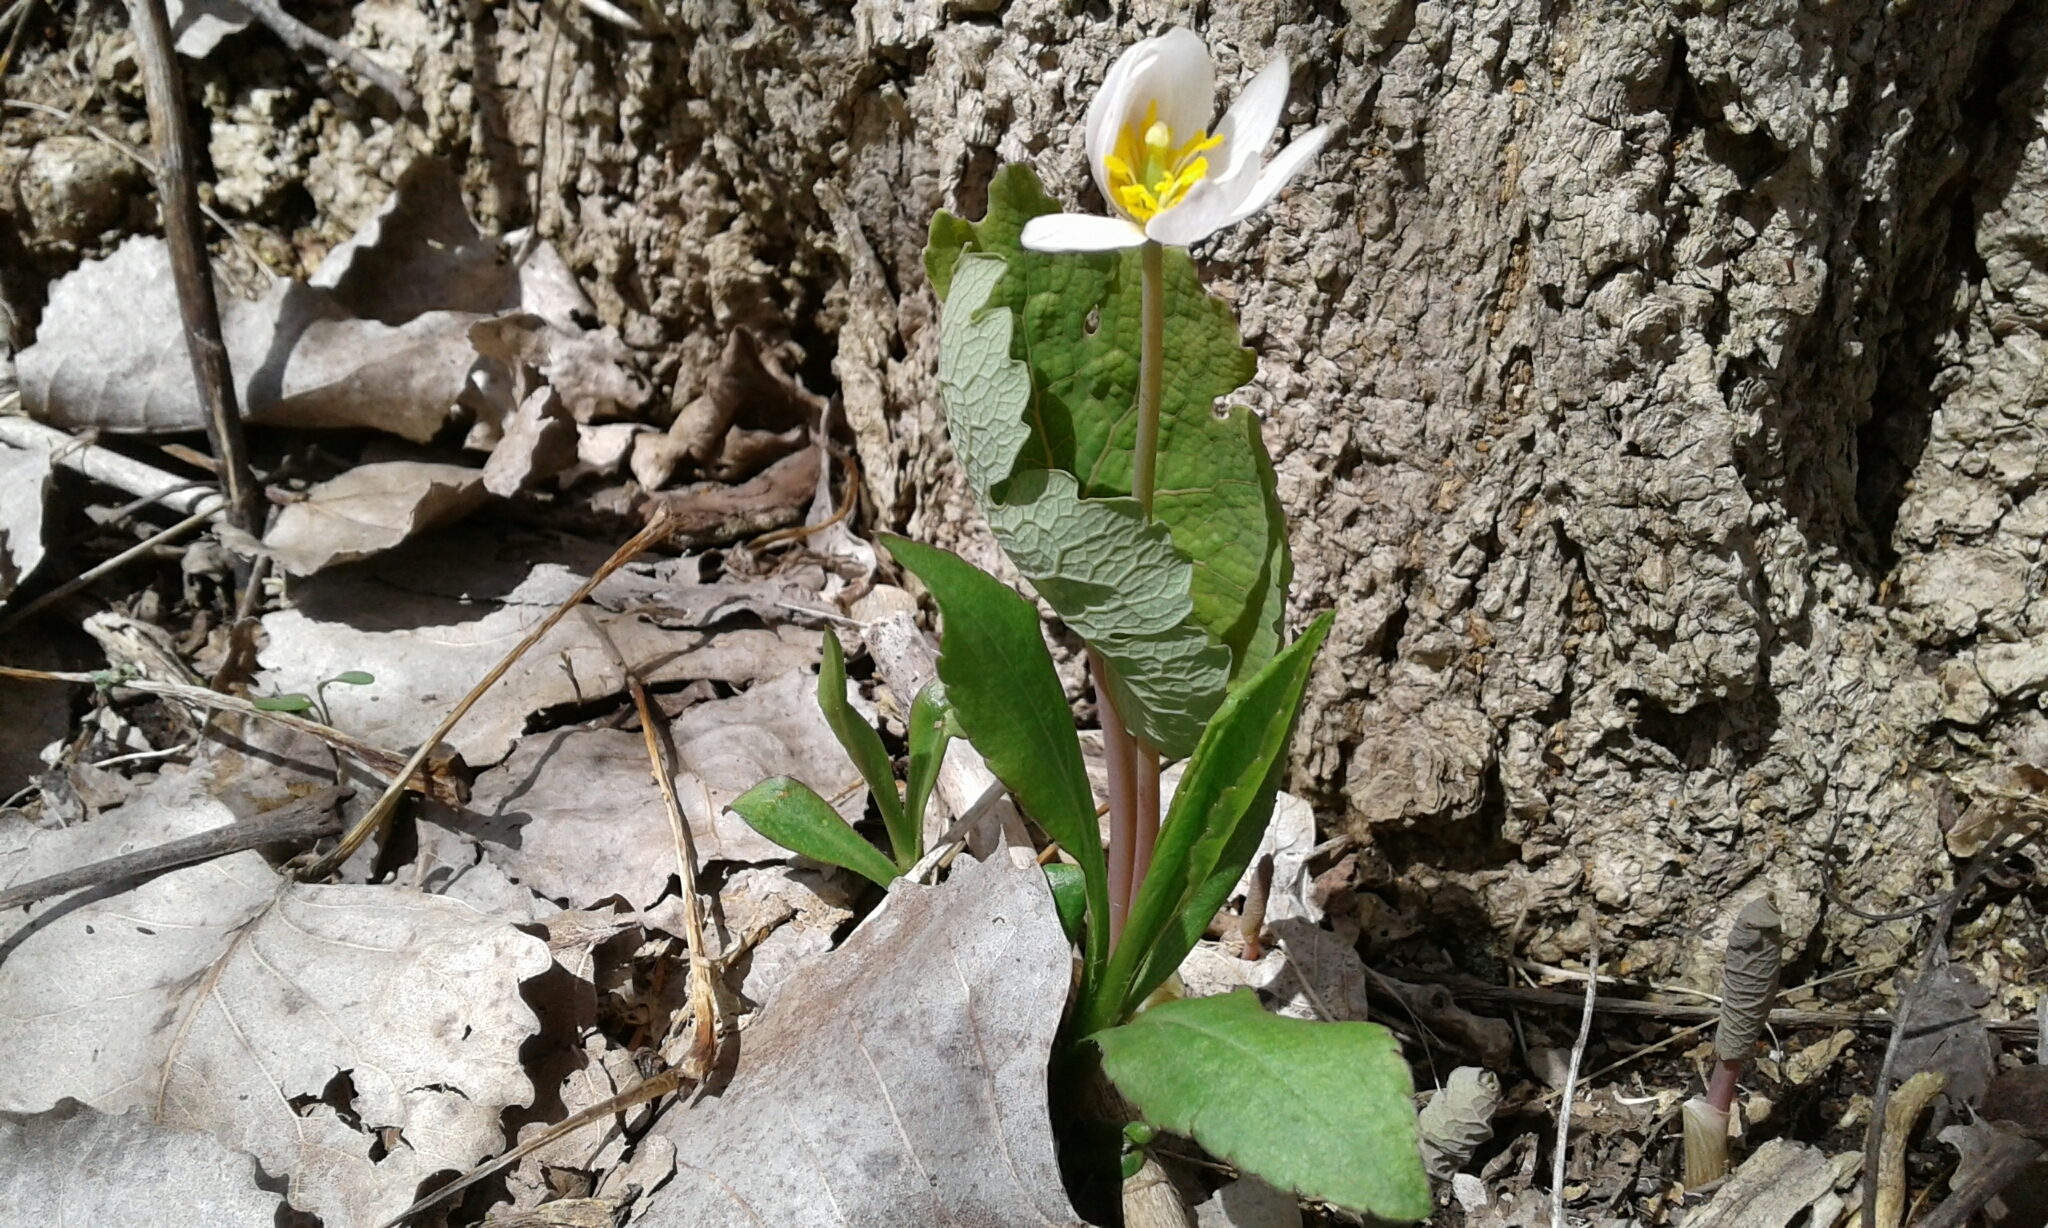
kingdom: Plantae
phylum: Tracheophyta
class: Magnoliopsida
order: Ranunculales
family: Papaveraceae
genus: Sanguinaria
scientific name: Sanguinaria canadensis
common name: Bloodroot
